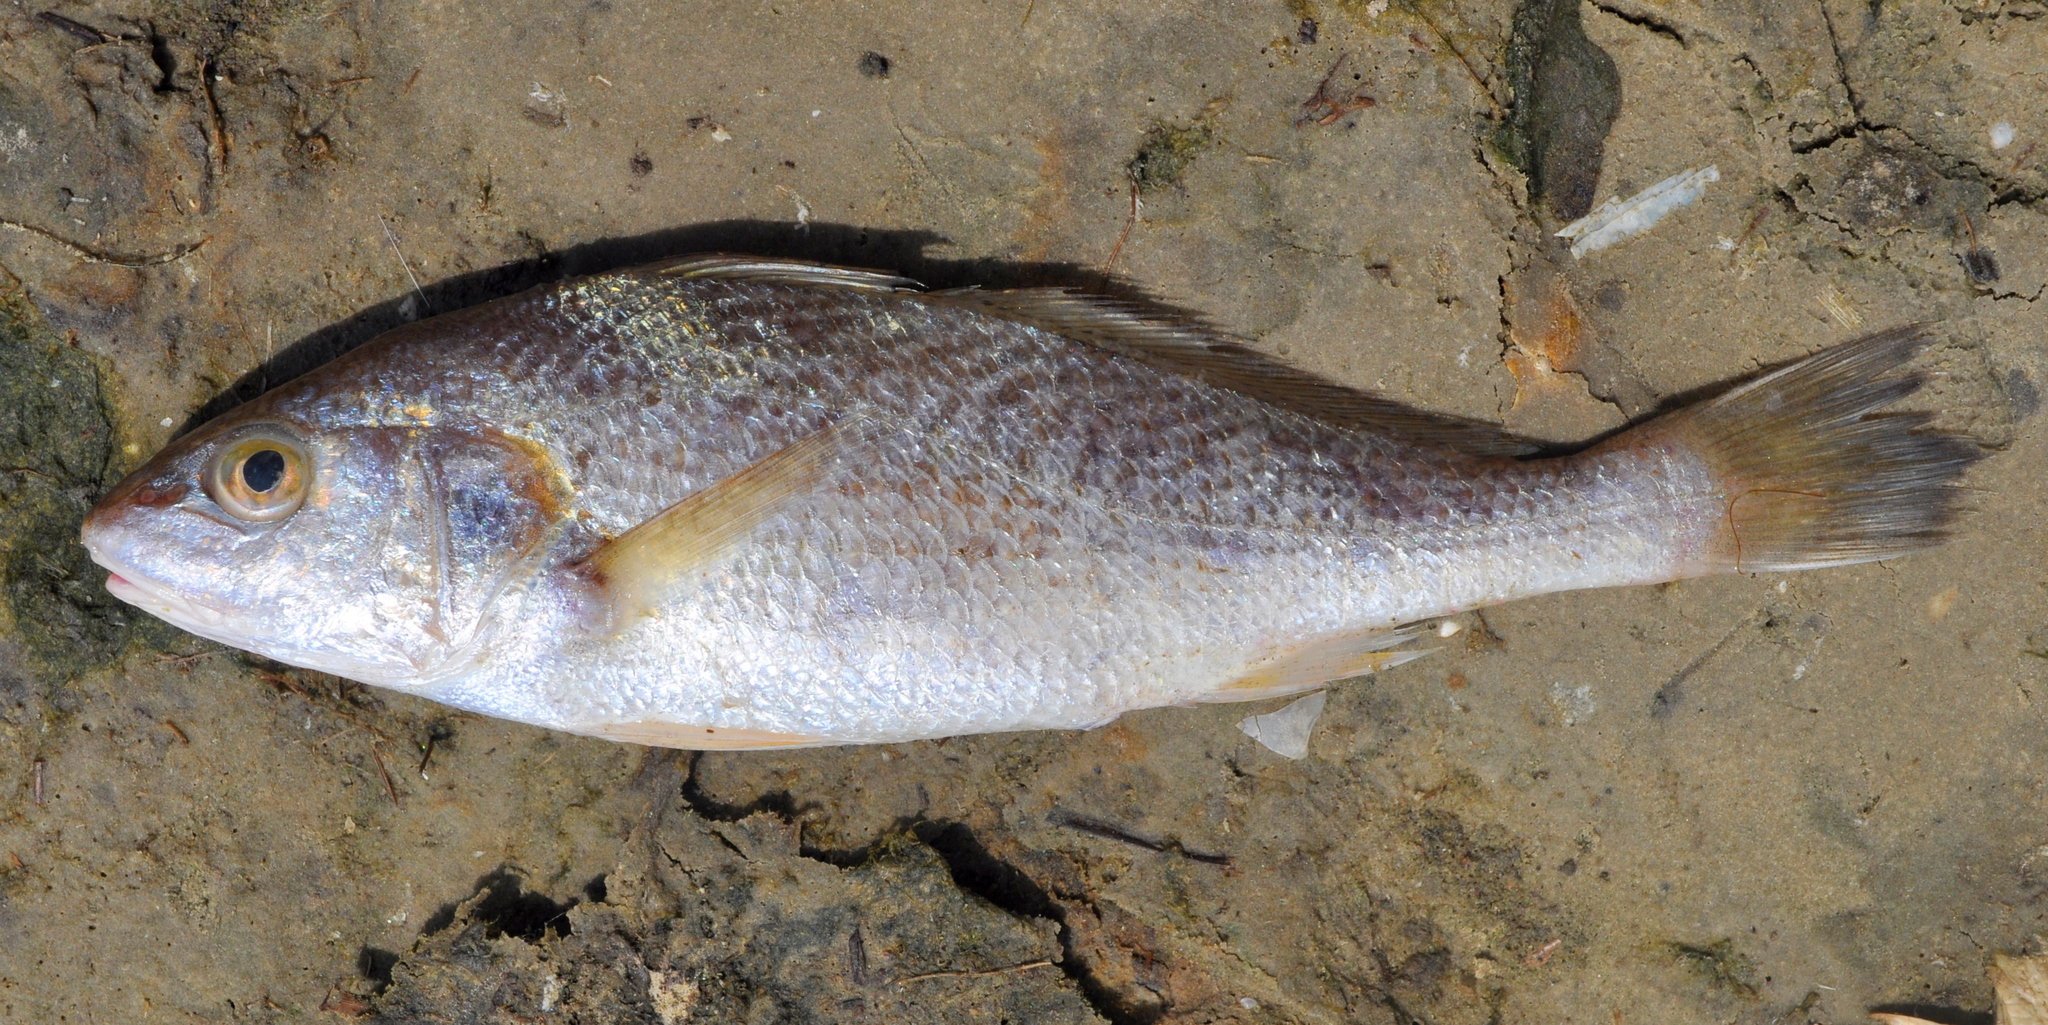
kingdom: Animalia
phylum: Chordata
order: Perciformes
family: Sciaenidae
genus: Micropogonias
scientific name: Micropogonias furnieri
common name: Whitemouth croaker
